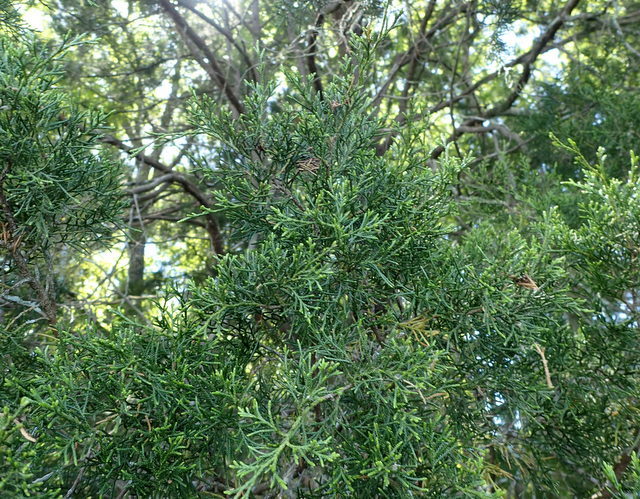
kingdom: Plantae
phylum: Tracheophyta
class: Pinopsida
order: Pinales
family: Cupressaceae
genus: Juniperus
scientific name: Juniperus virginiana
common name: Red juniper
